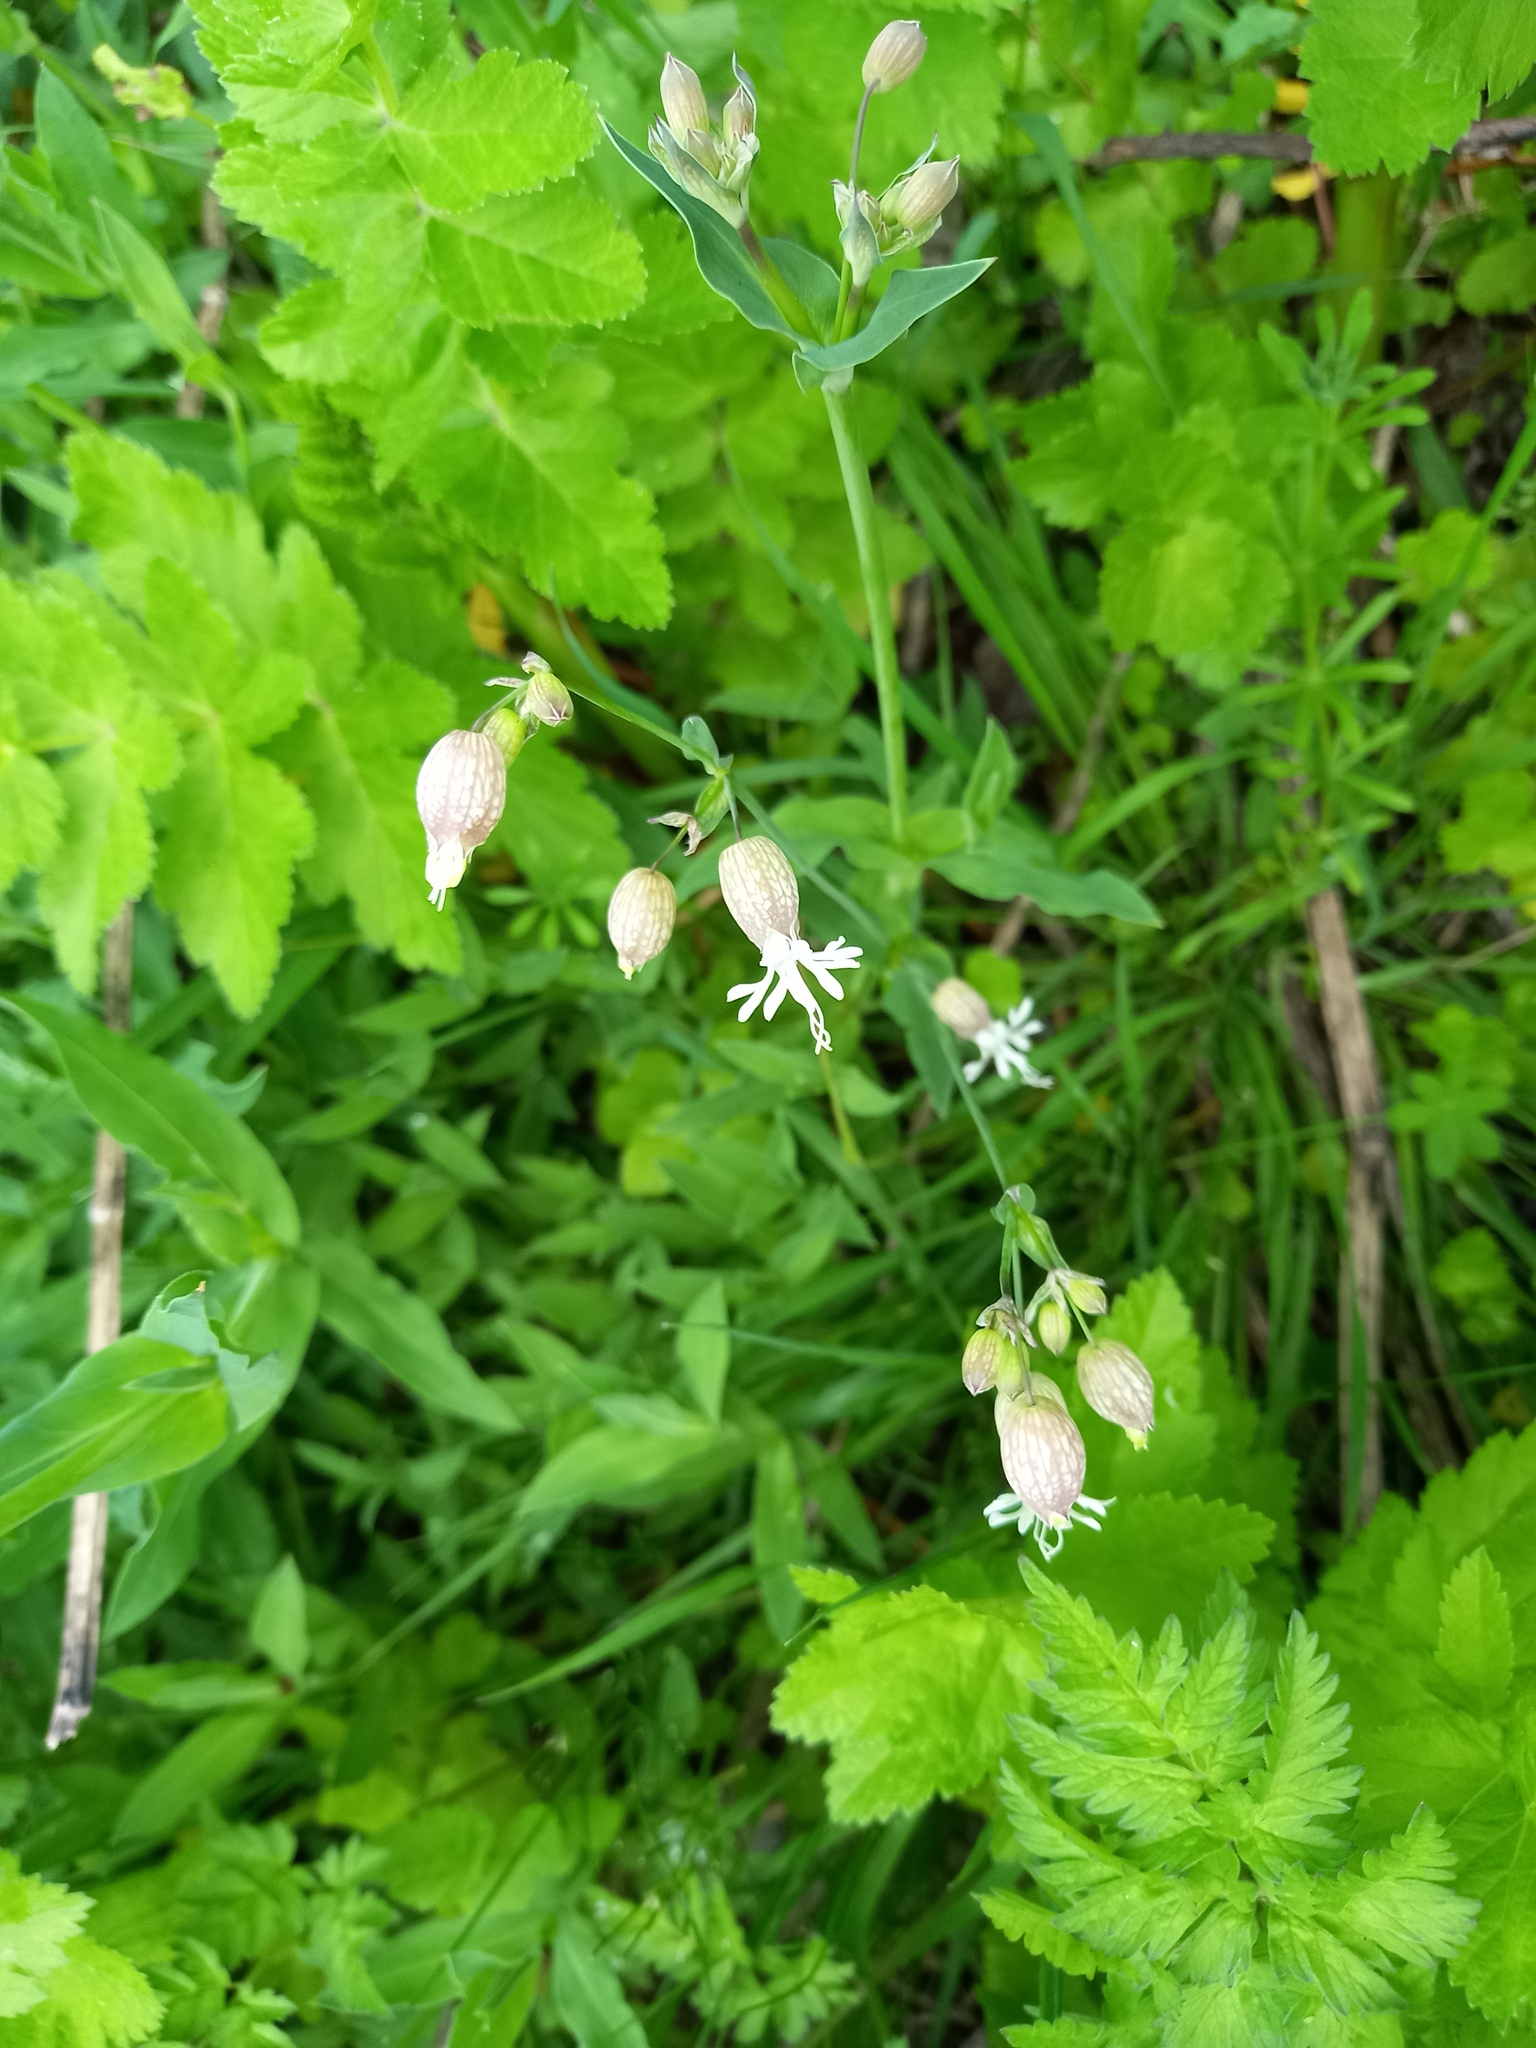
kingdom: Plantae
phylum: Tracheophyta
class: Magnoliopsida
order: Caryophyllales
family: Caryophyllaceae
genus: Silene
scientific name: Silene vulgaris
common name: Bladder campion
